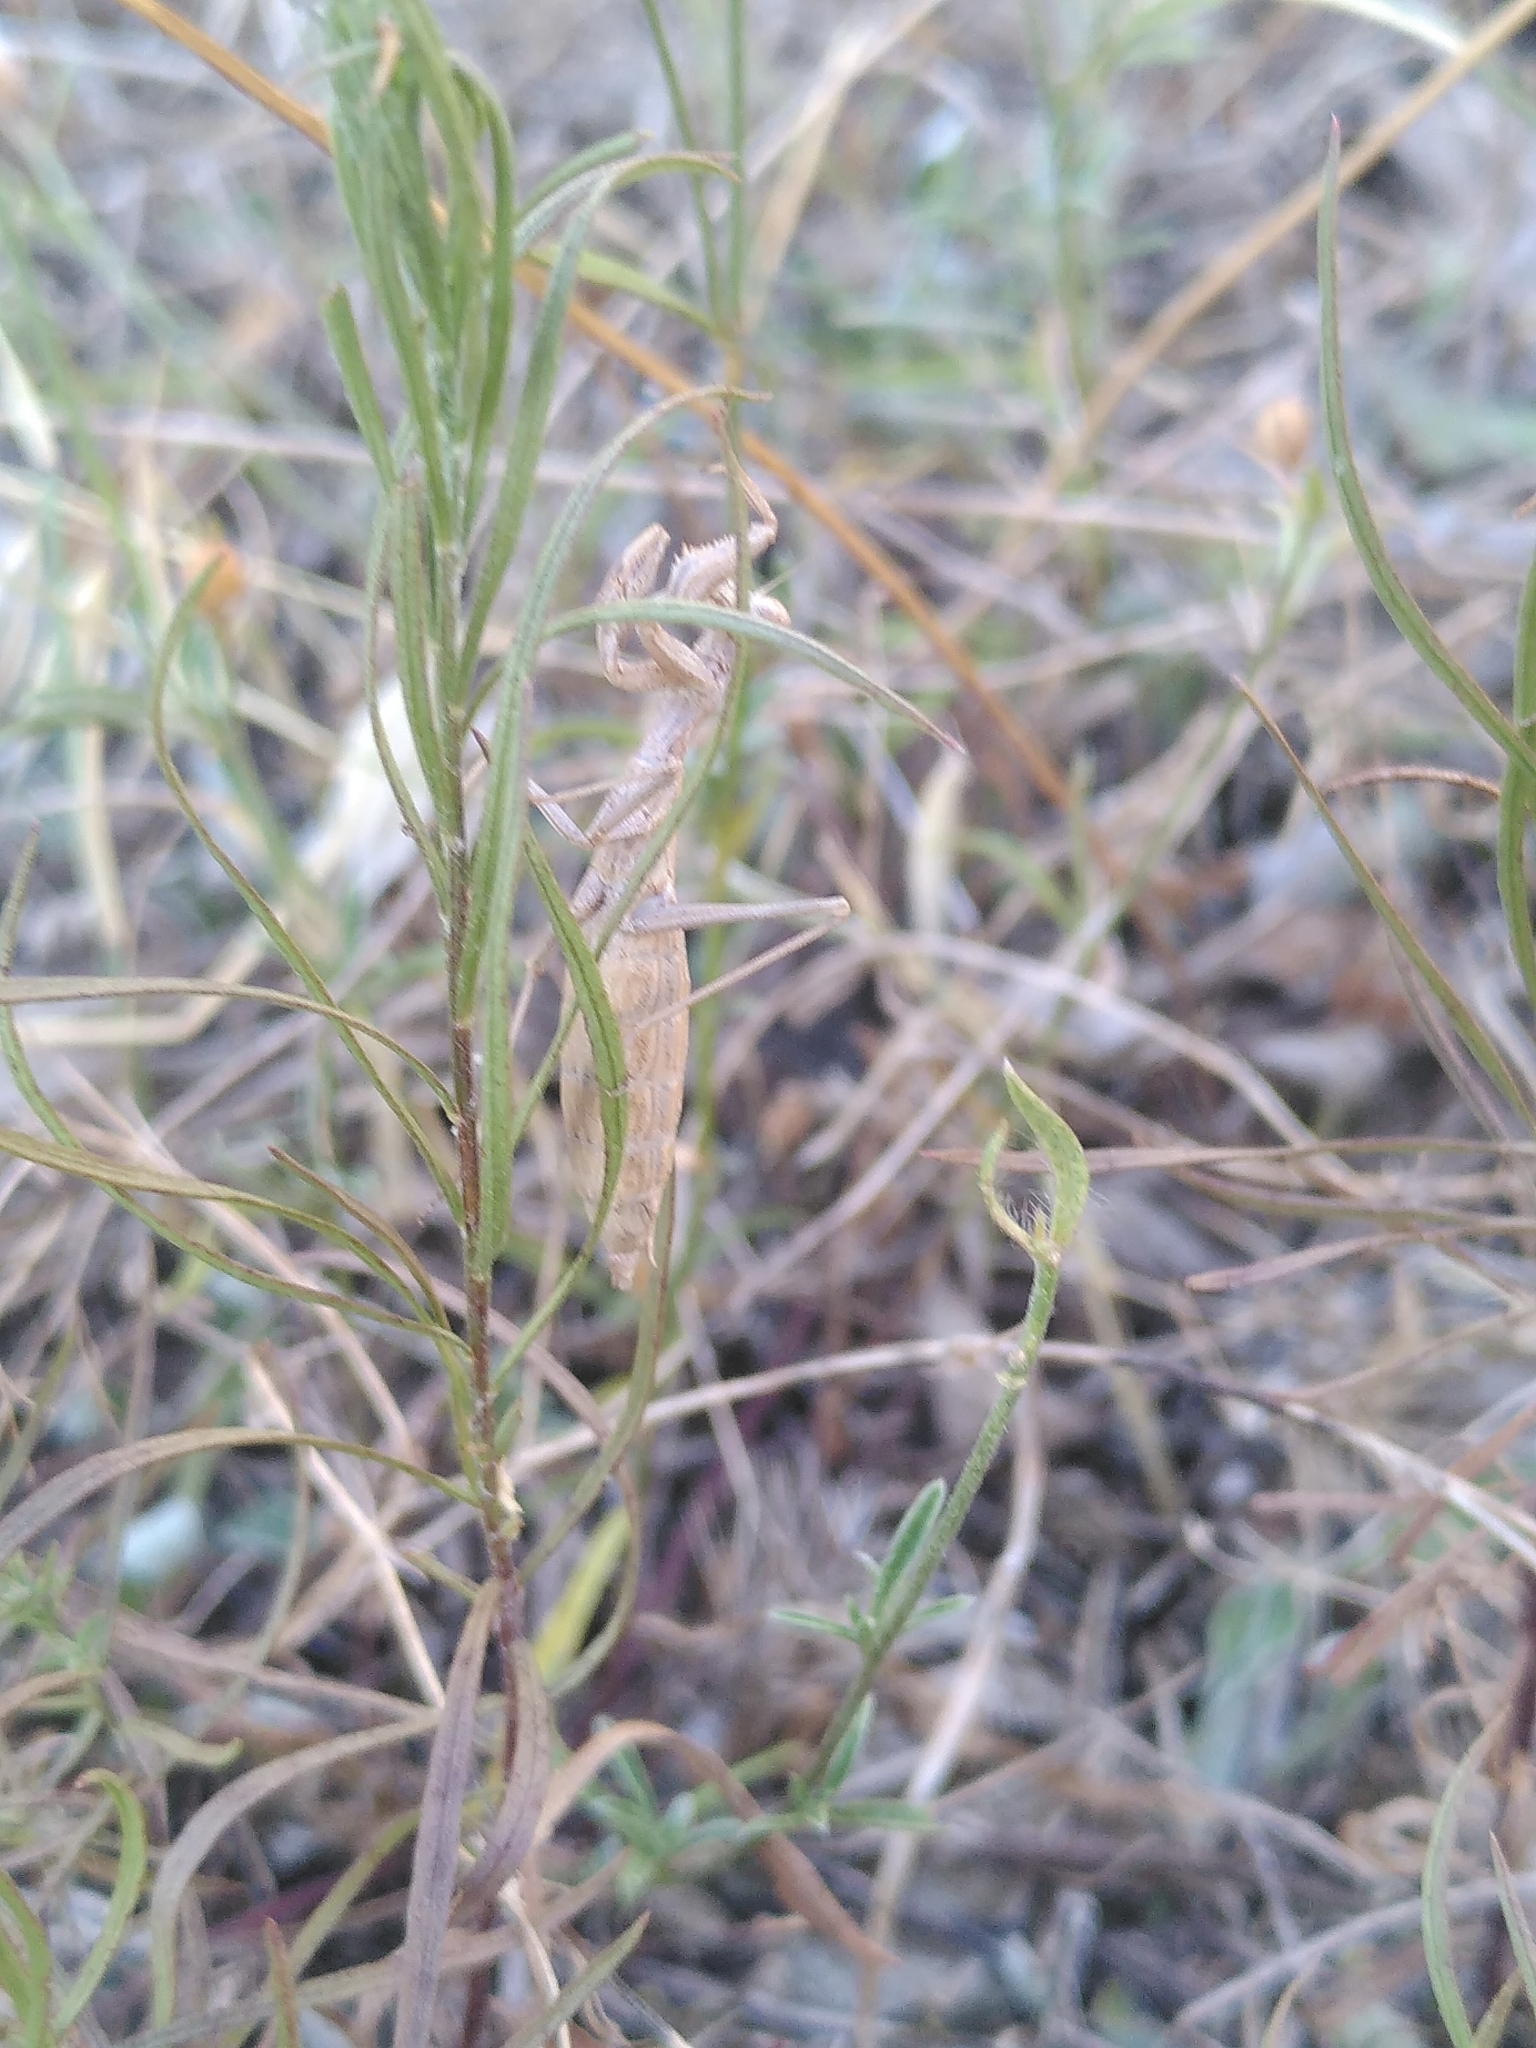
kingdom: Animalia
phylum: Arthropoda
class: Insecta
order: Mantodea
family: Amelidae
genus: Ameles
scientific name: Ameles decolor
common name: Dwarf mantis
